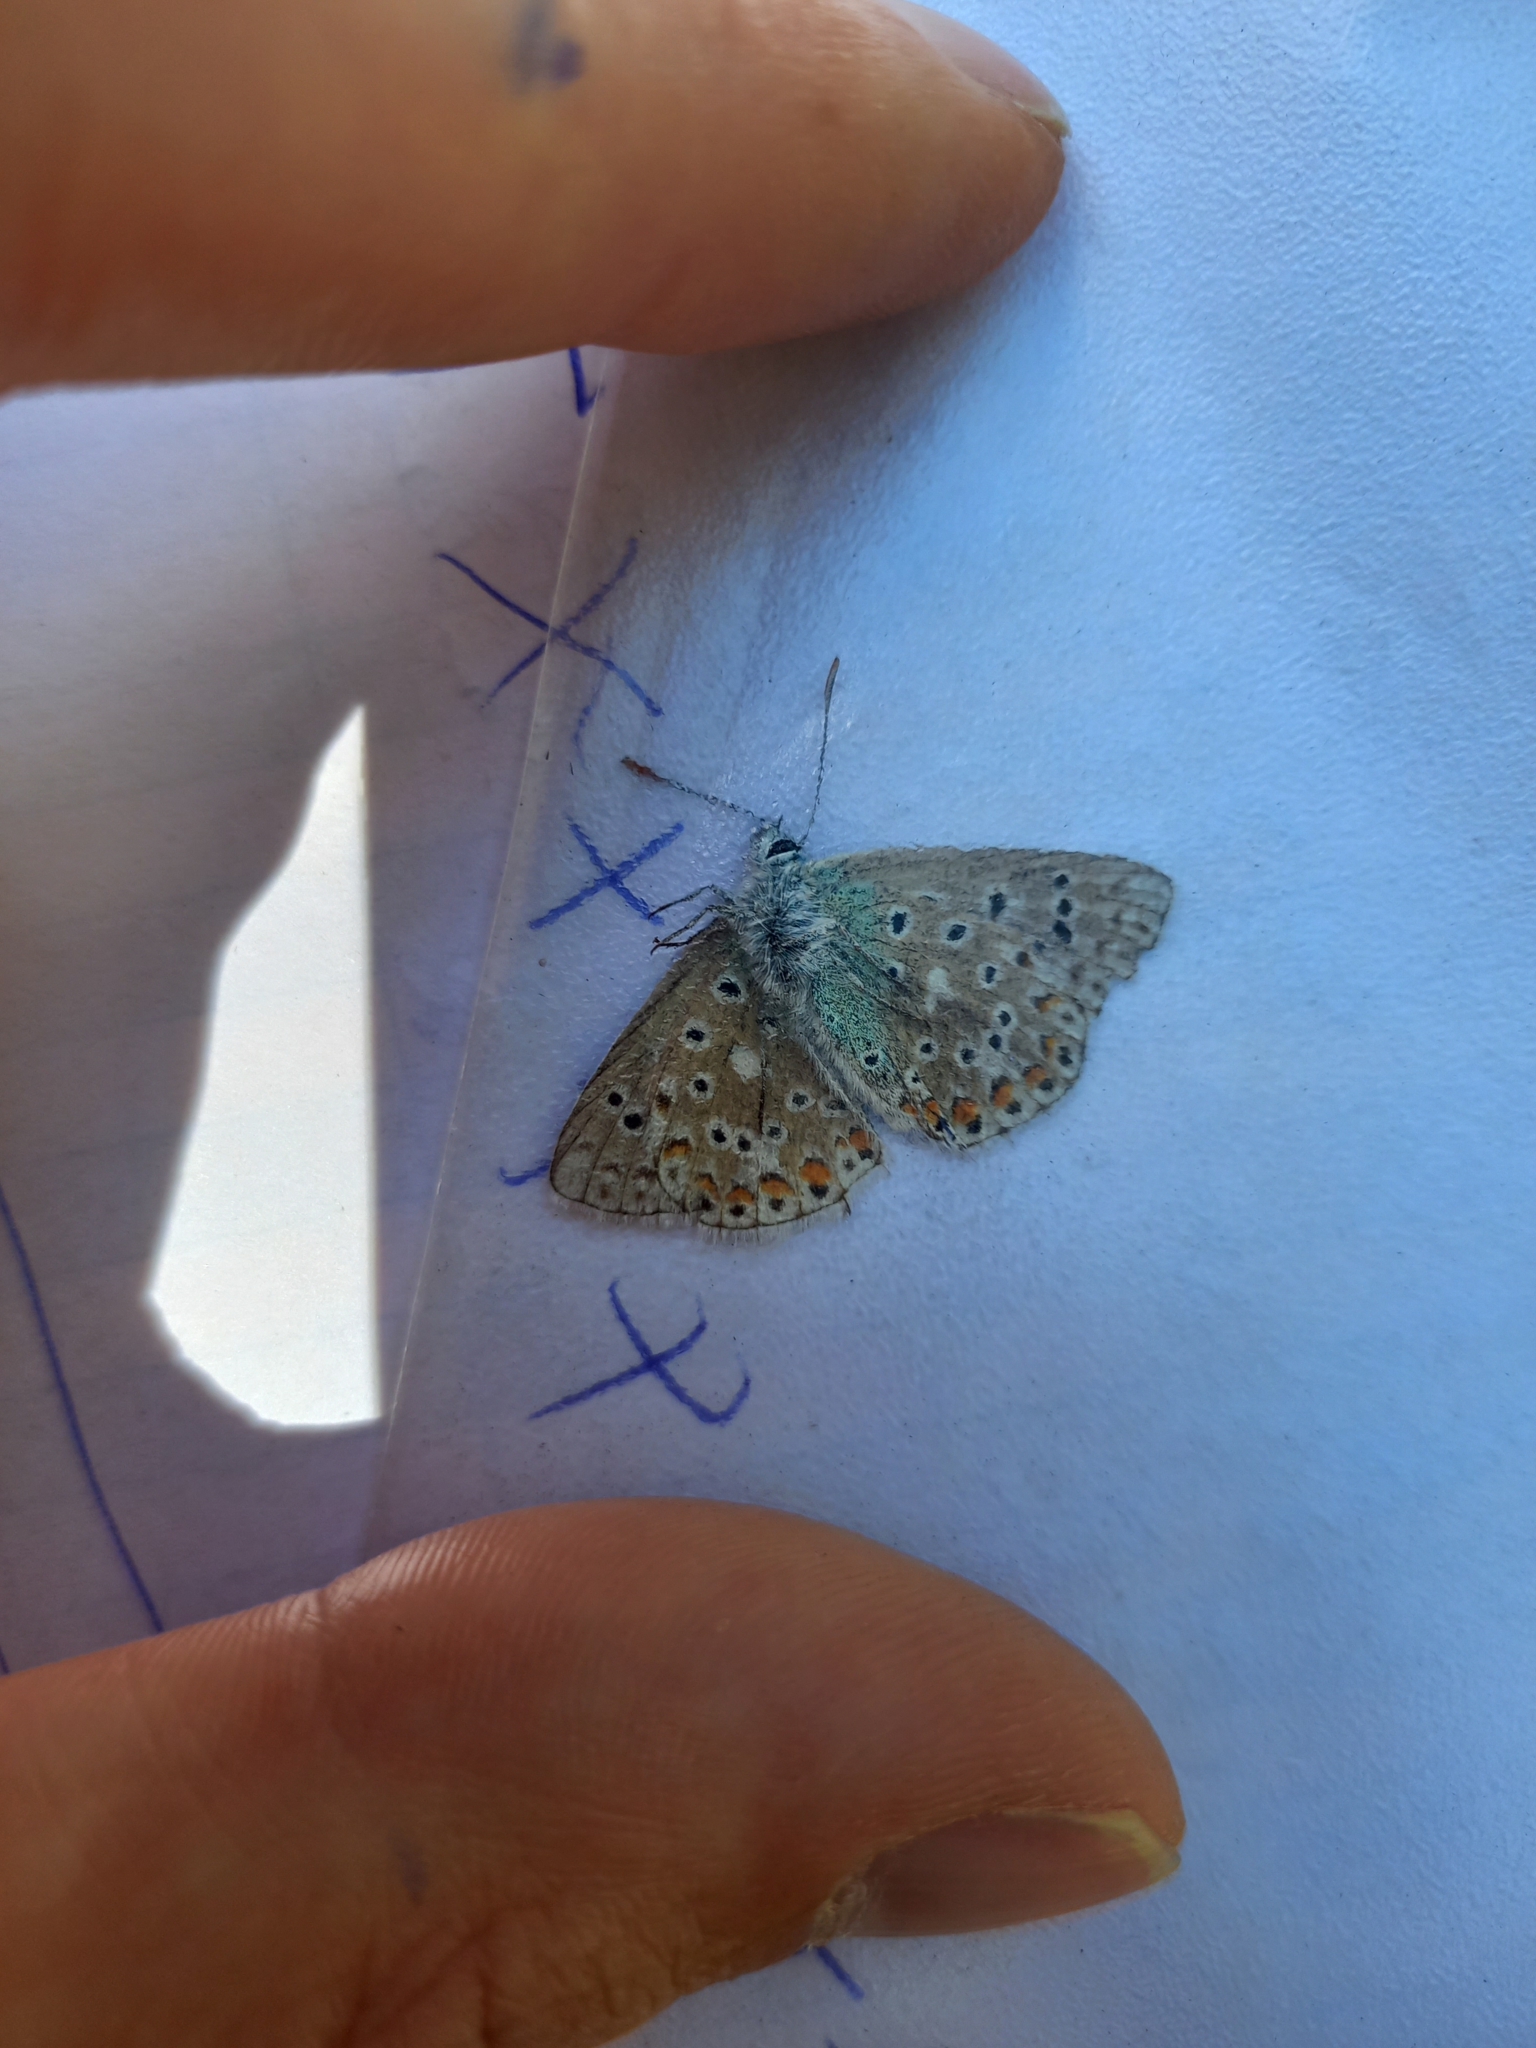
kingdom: Animalia
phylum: Arthropoda
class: Insecta
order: Lepidoptera
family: Lycaenidae
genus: Lysandra
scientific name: Lysandra bellargus
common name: Adonis blue
